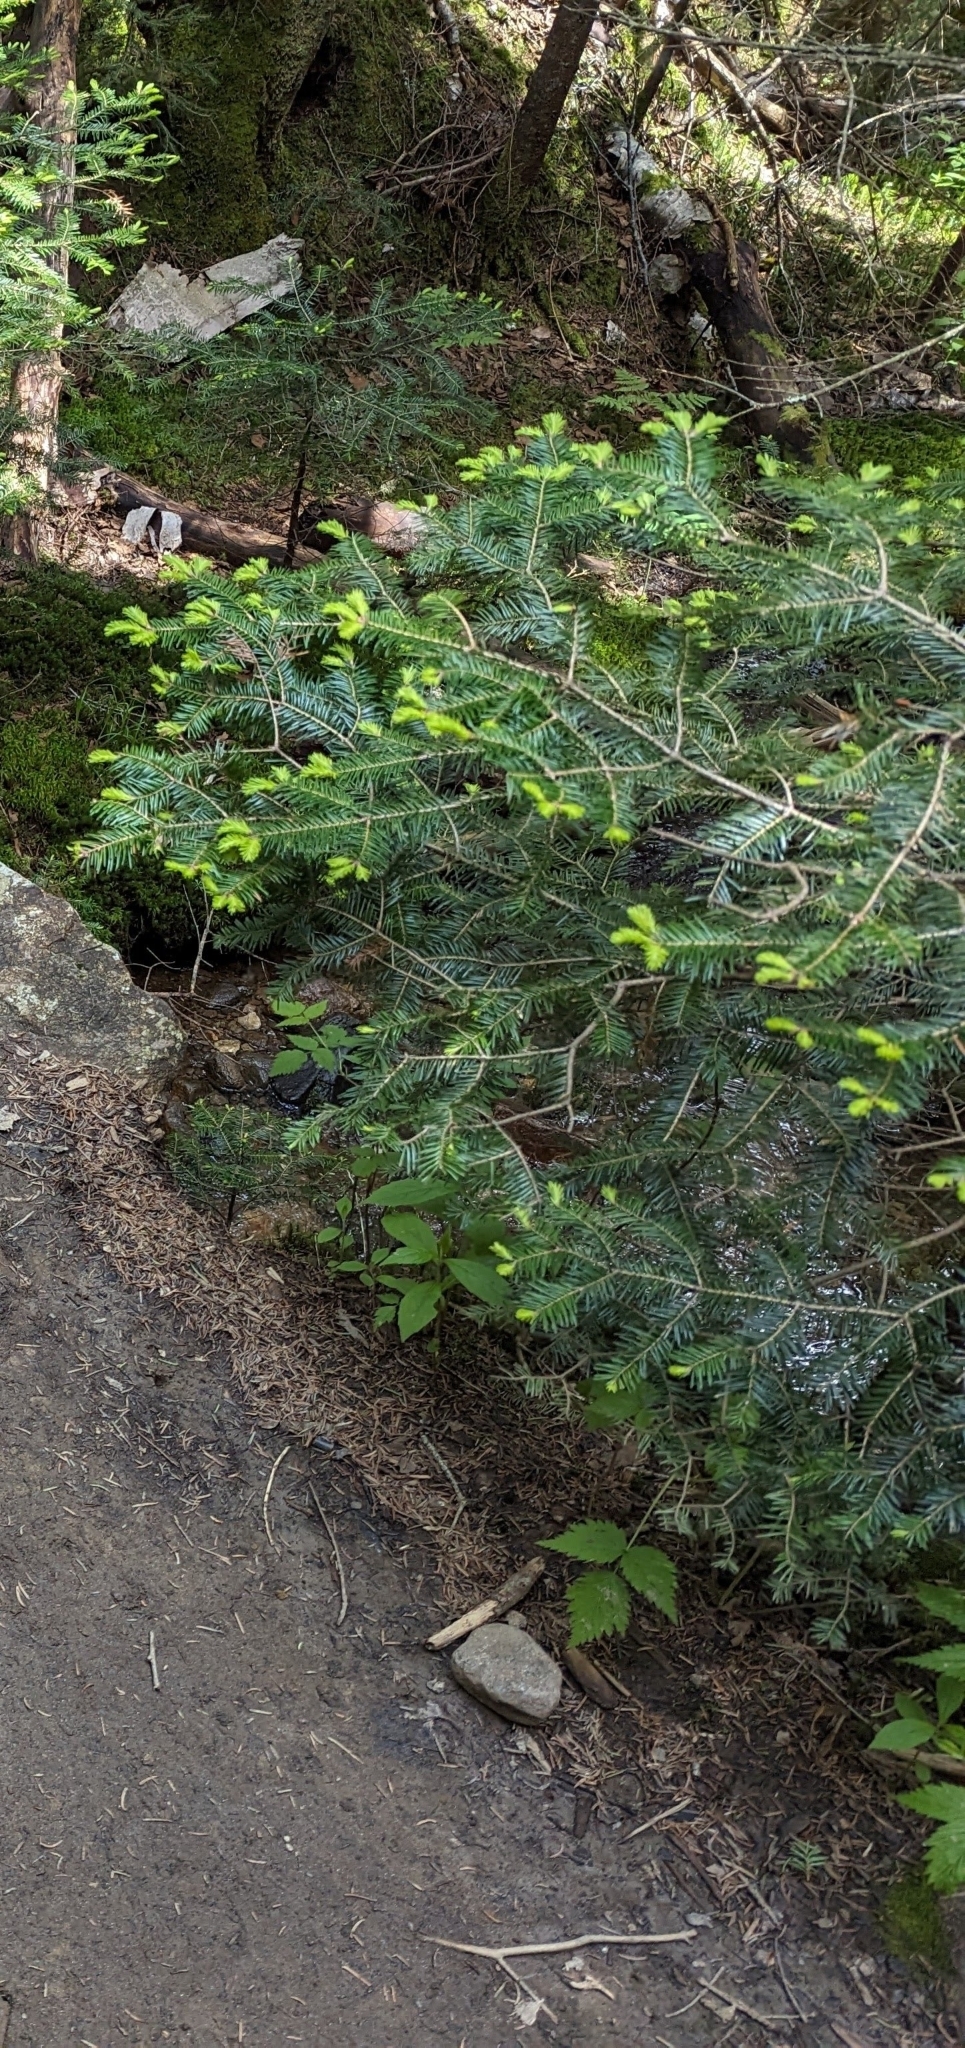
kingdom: Plantae
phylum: Tracheophyta
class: Pinopsida
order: Pinales
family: Pinaceae
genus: Abies
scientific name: Abies balsamea
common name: Balsam fir
